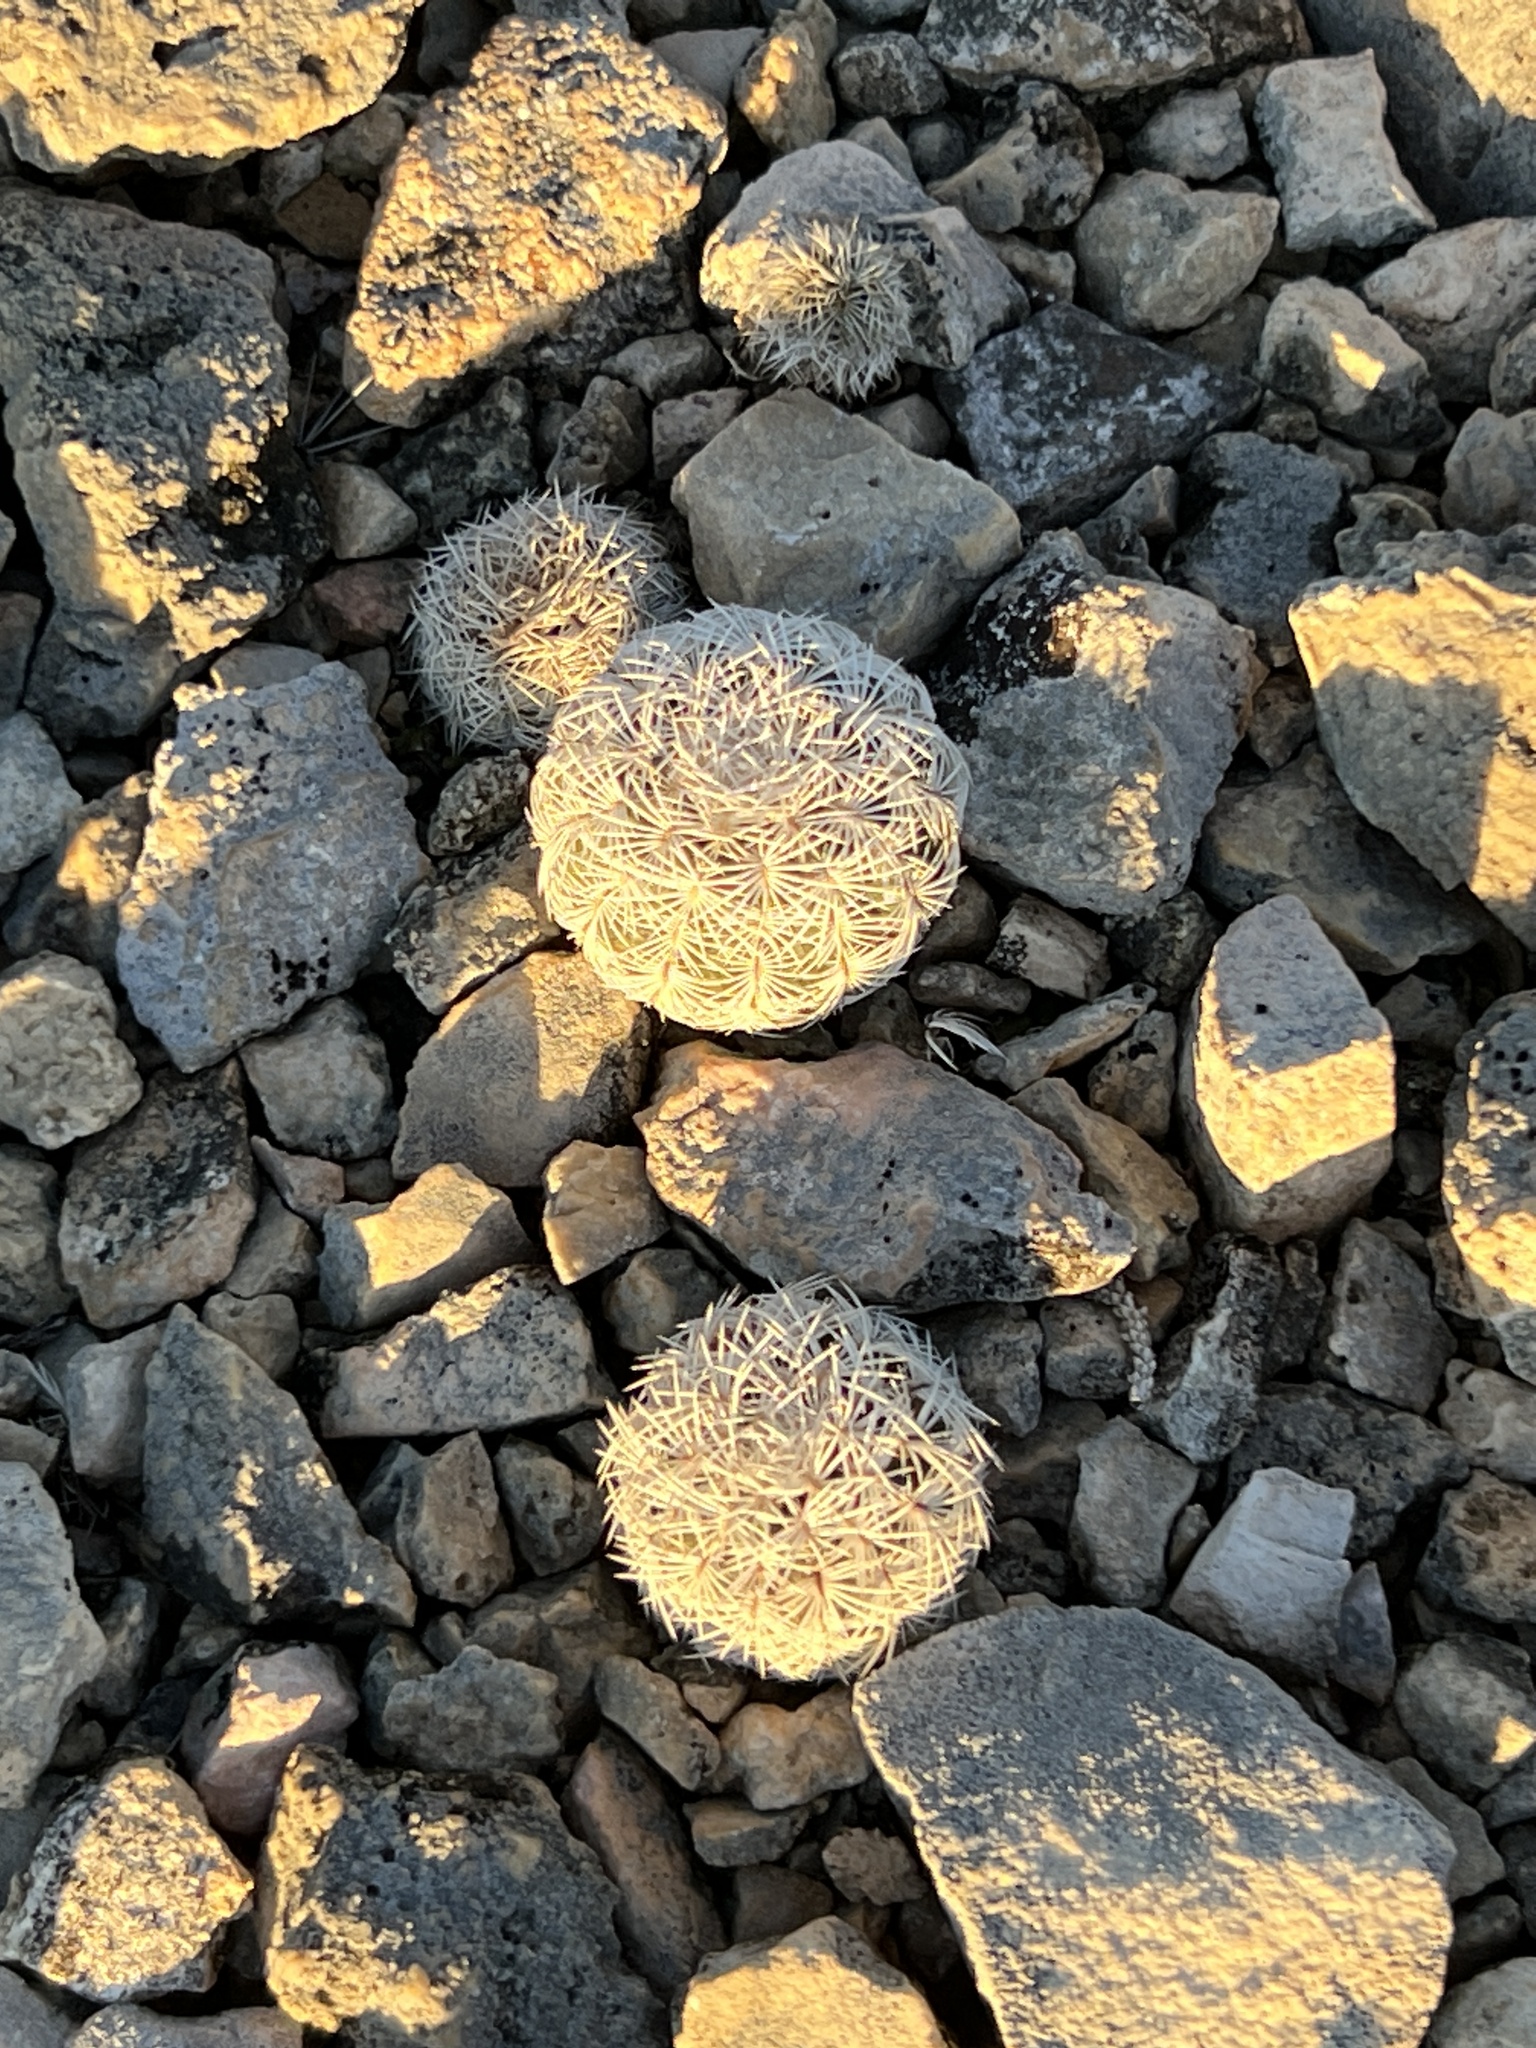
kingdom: Plantae
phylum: Tracheophyta
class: Magnoliopsida
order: Caryophyllales
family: Cactaceae
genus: Echinocereus
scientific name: Echinocereus reichenbachii
